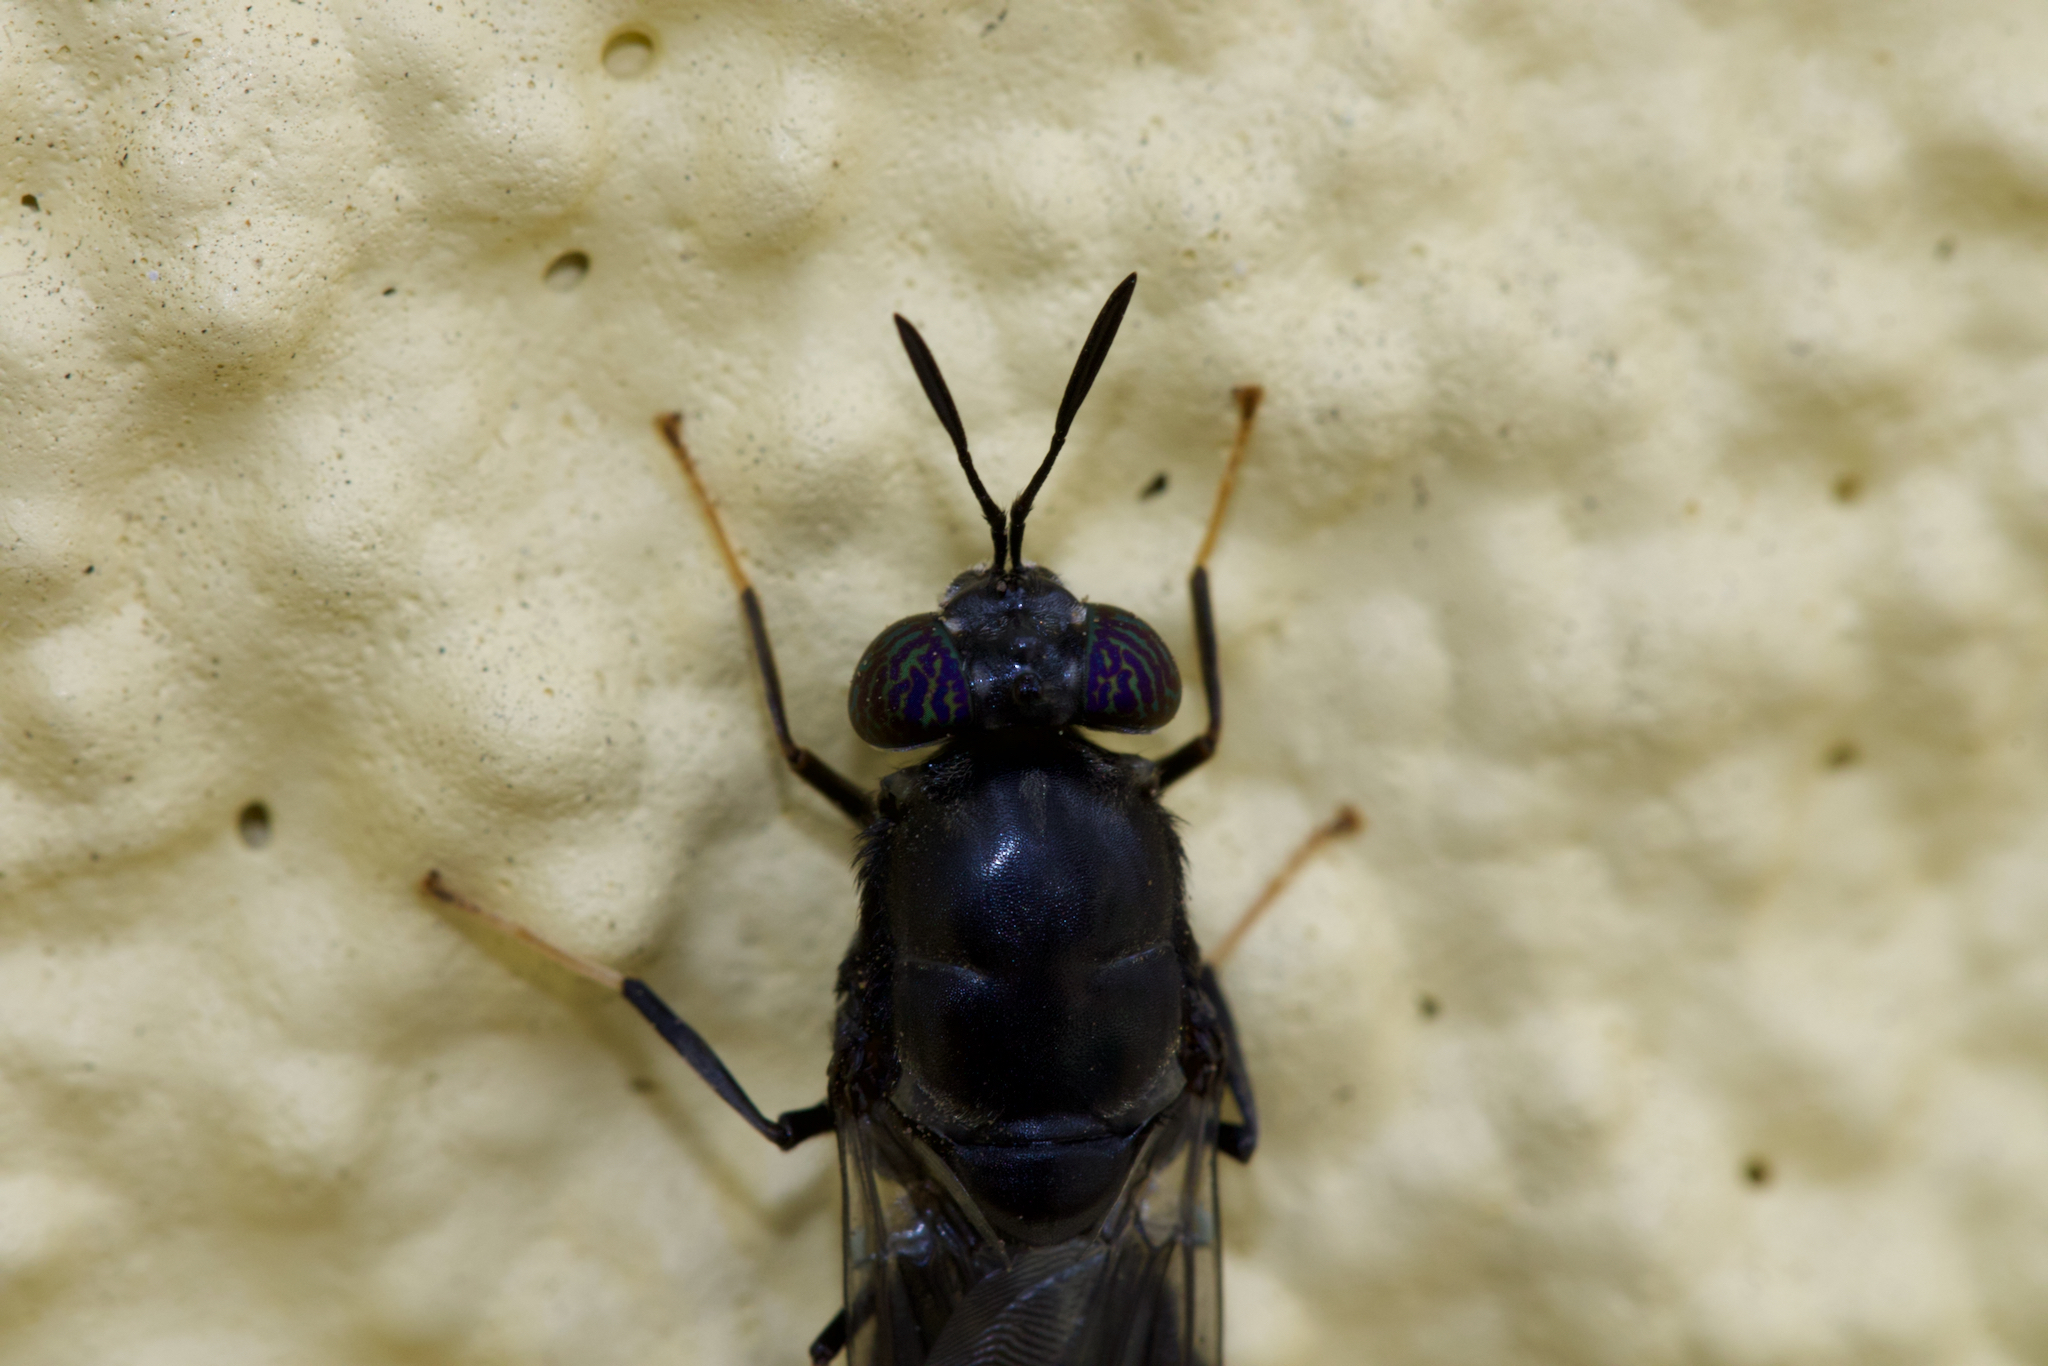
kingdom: Animalia
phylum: Arthropoda
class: Insecta
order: Diptera
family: Stratiomyidae
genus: Hermetia
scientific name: Hermetia illucens
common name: Black soldier fly
